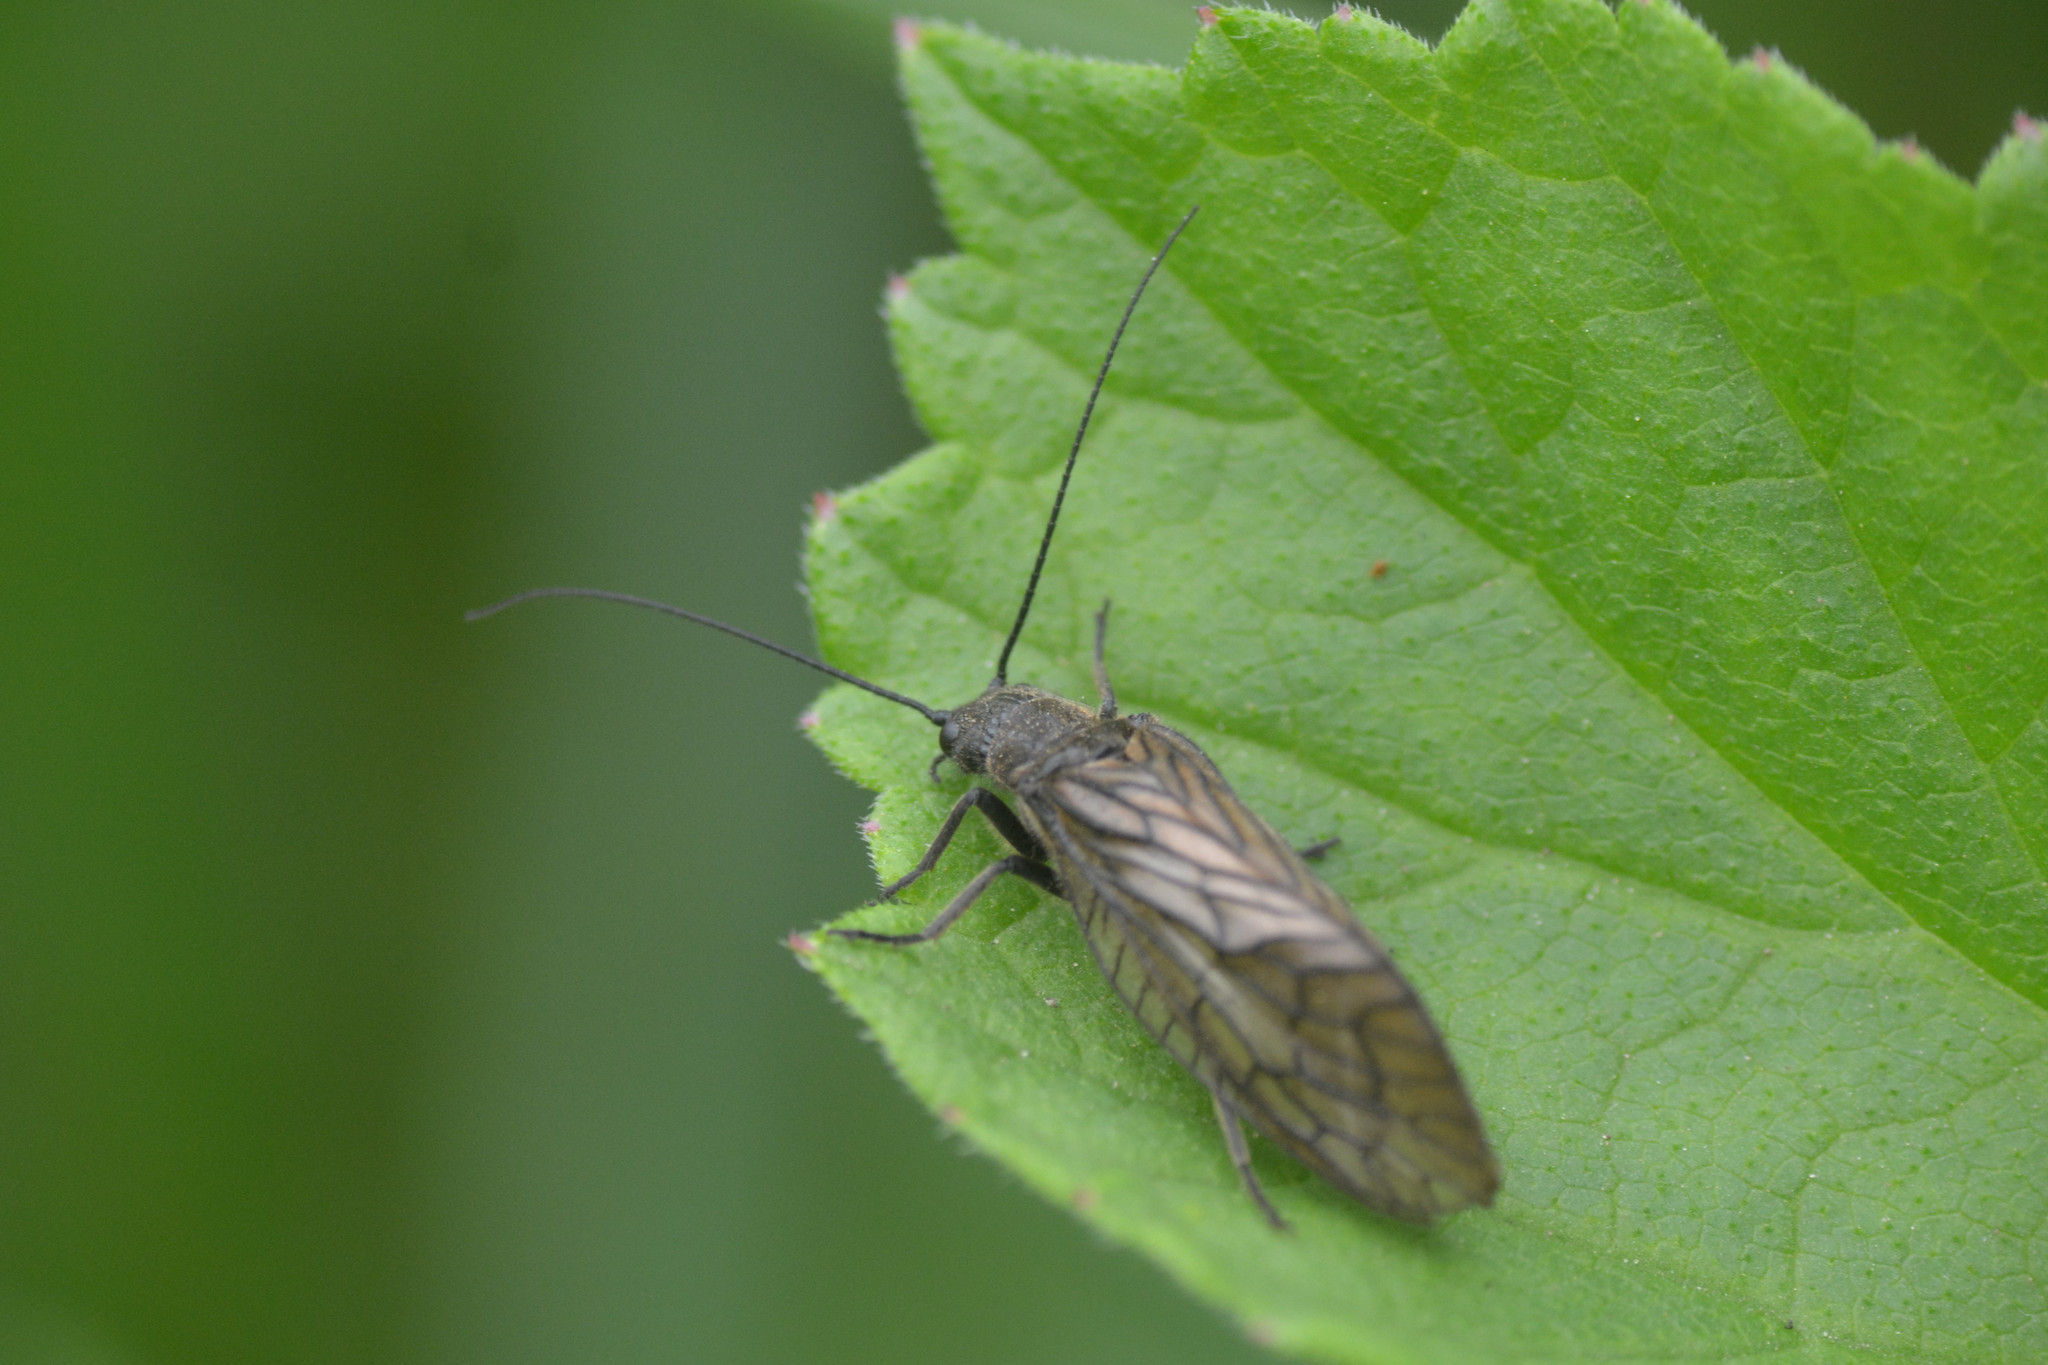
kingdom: Animalia
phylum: Arthropoda
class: Insecta
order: Megaloptera
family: Sialidae
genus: Sialis
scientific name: Sialis
